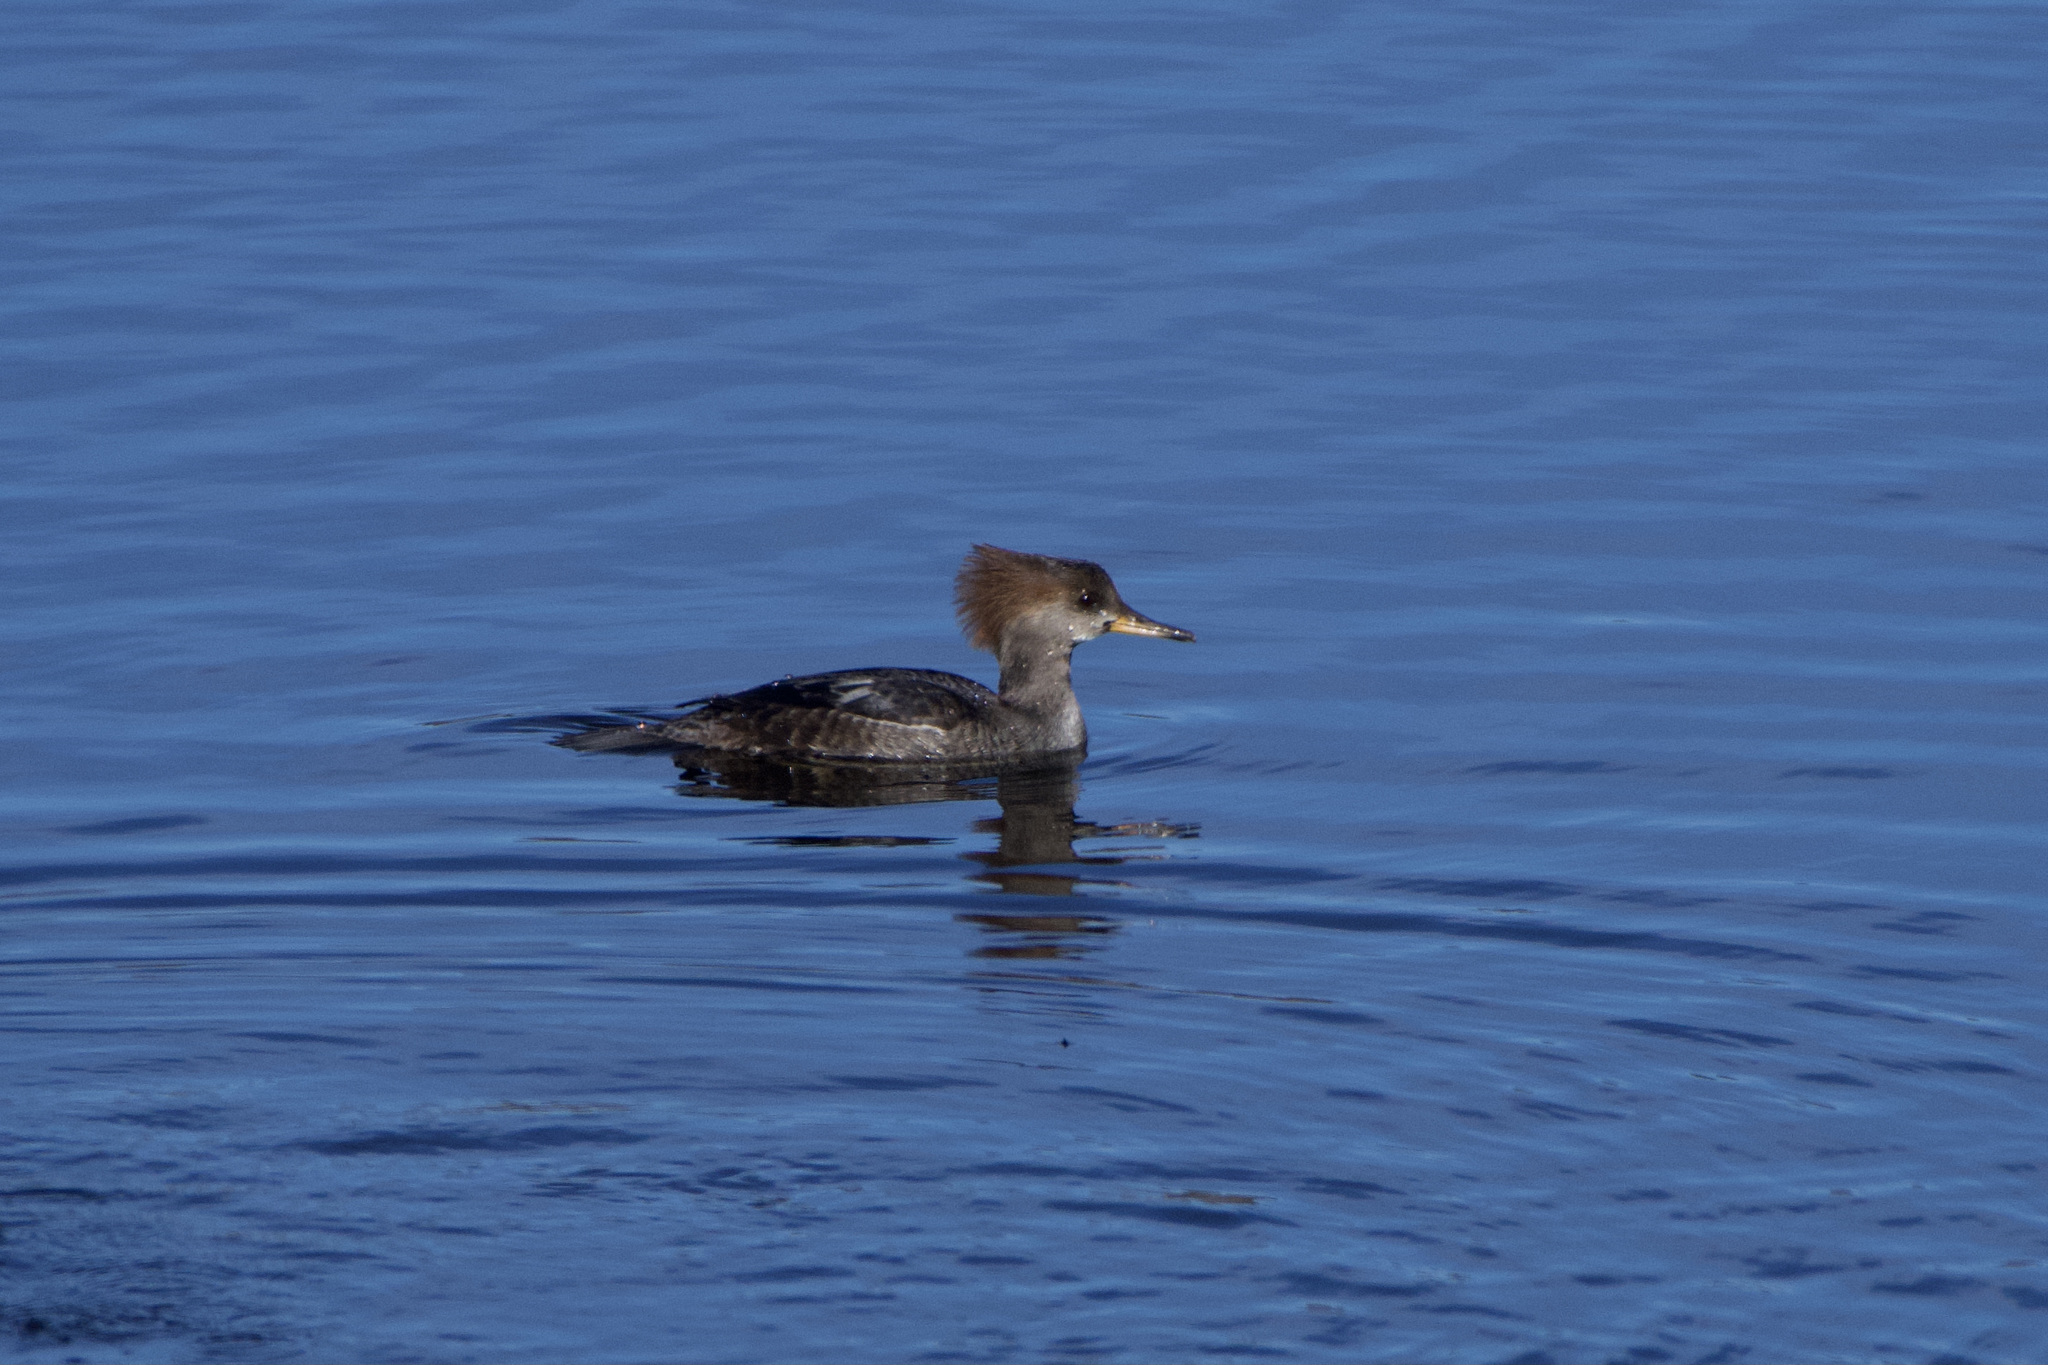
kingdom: Animalia
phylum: Chordata
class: Aves
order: Anseriformes
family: Anatidae
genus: Lophodytes
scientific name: Lophodytes cucullatus
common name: Hooded merganser
